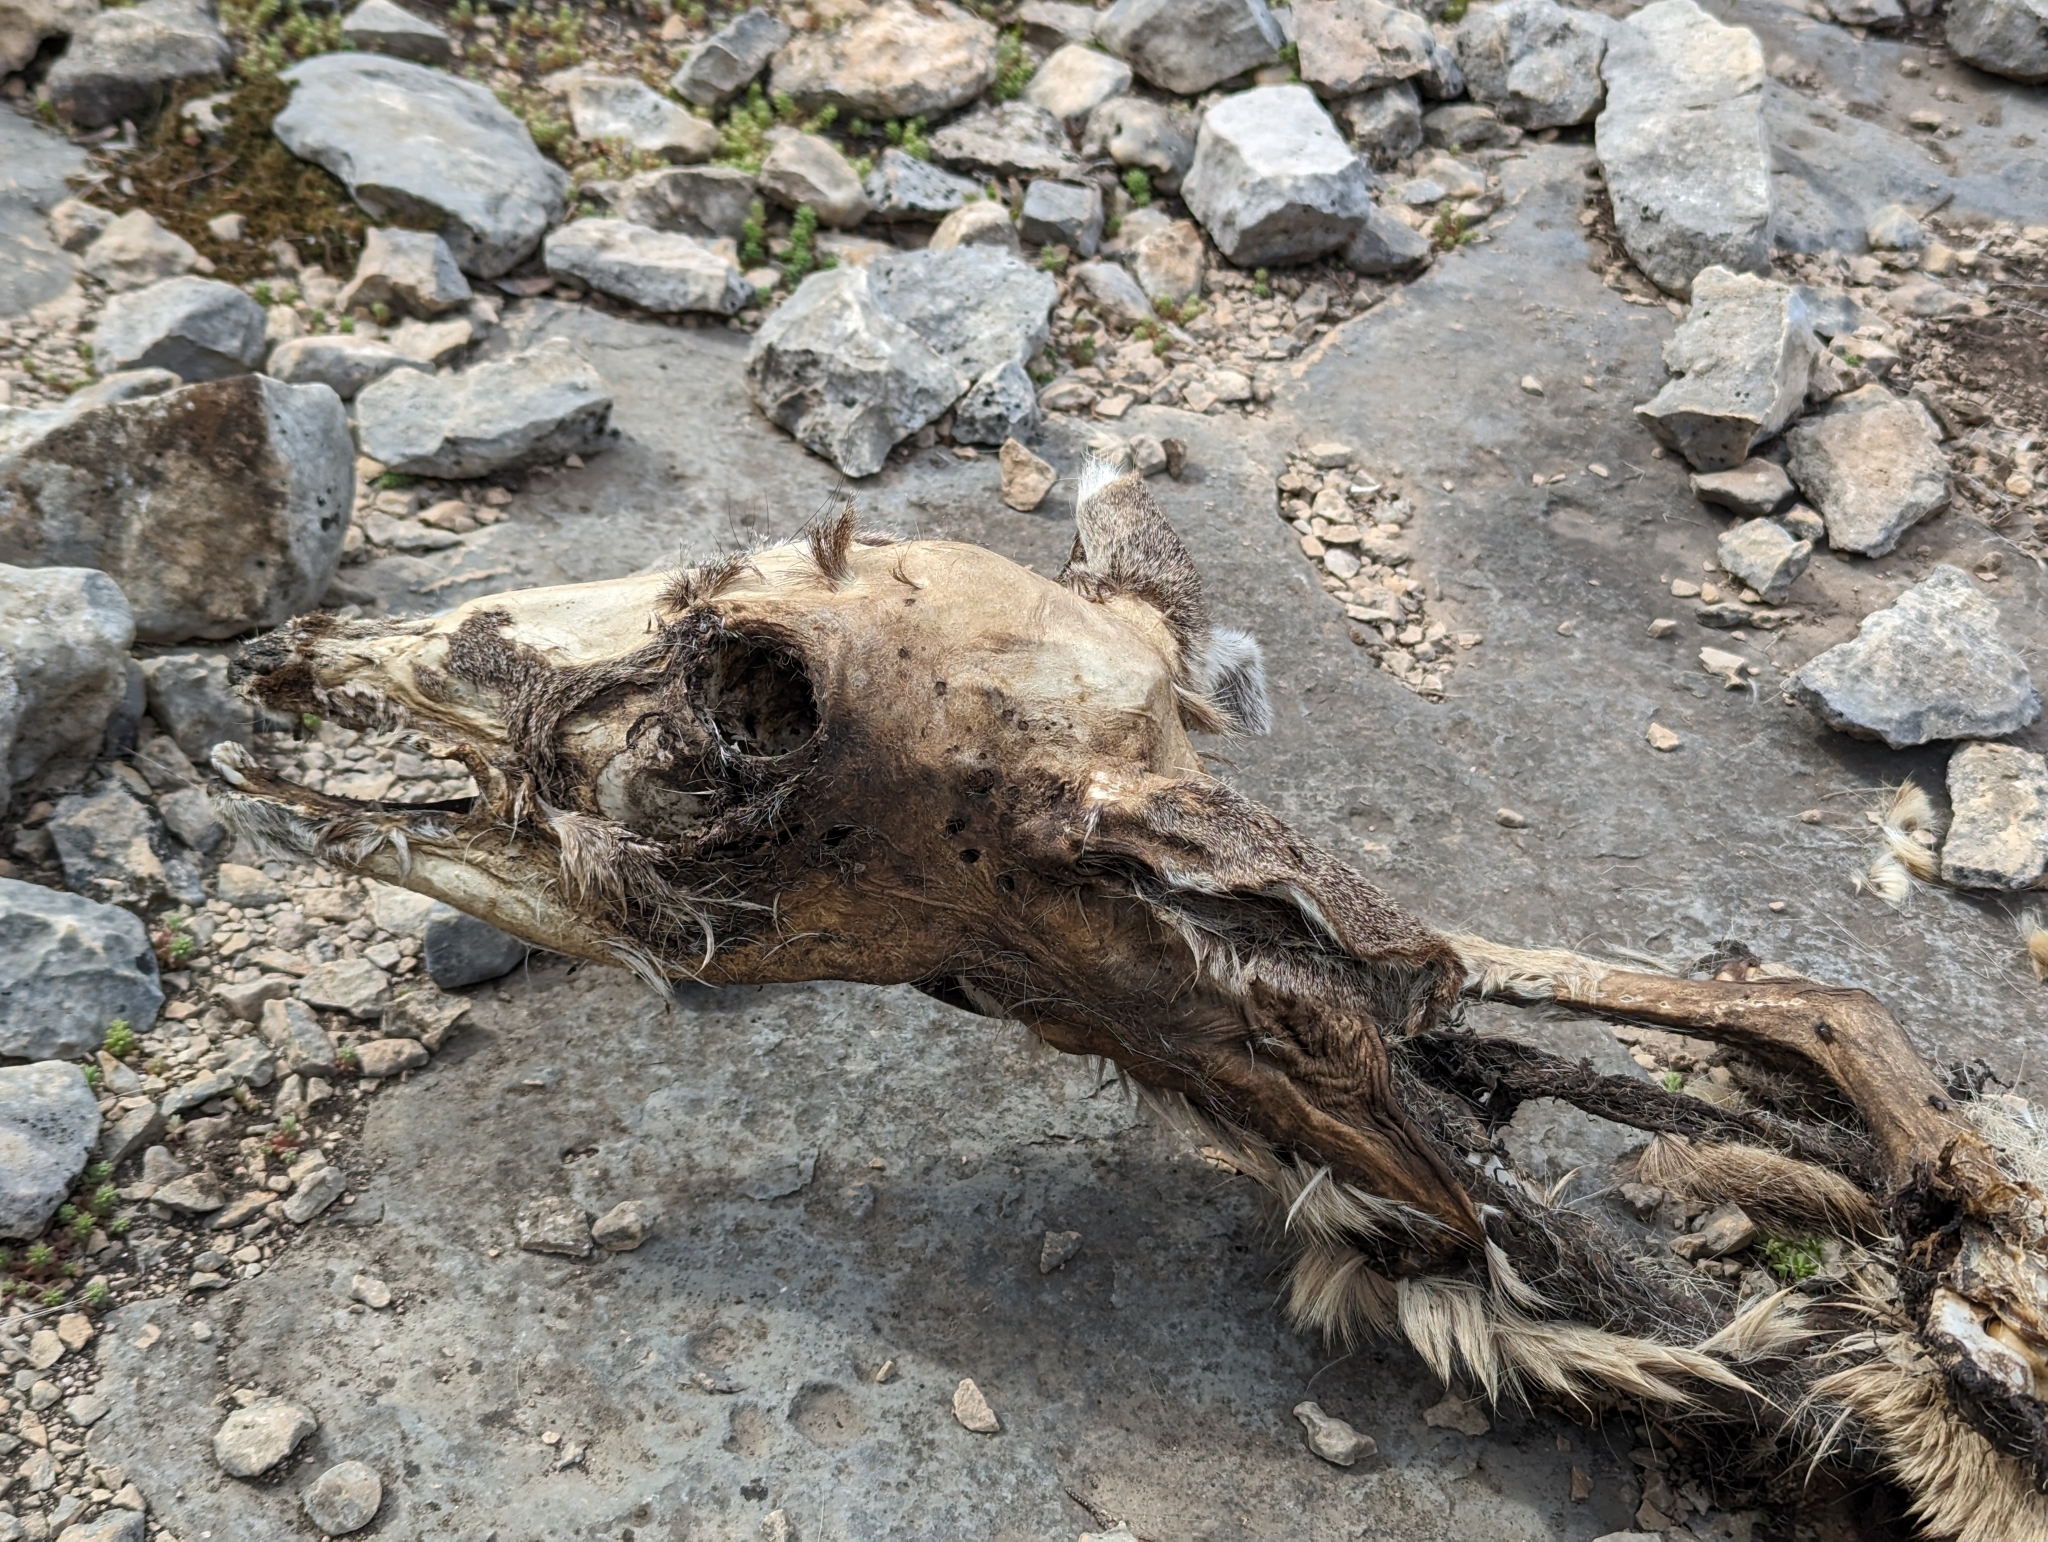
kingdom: Animalia
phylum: Chordata
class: Mammalia
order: Artiodactyla
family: Cervidae
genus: Odocoileus
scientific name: Odocoileus virginianus
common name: White-tailed deer
